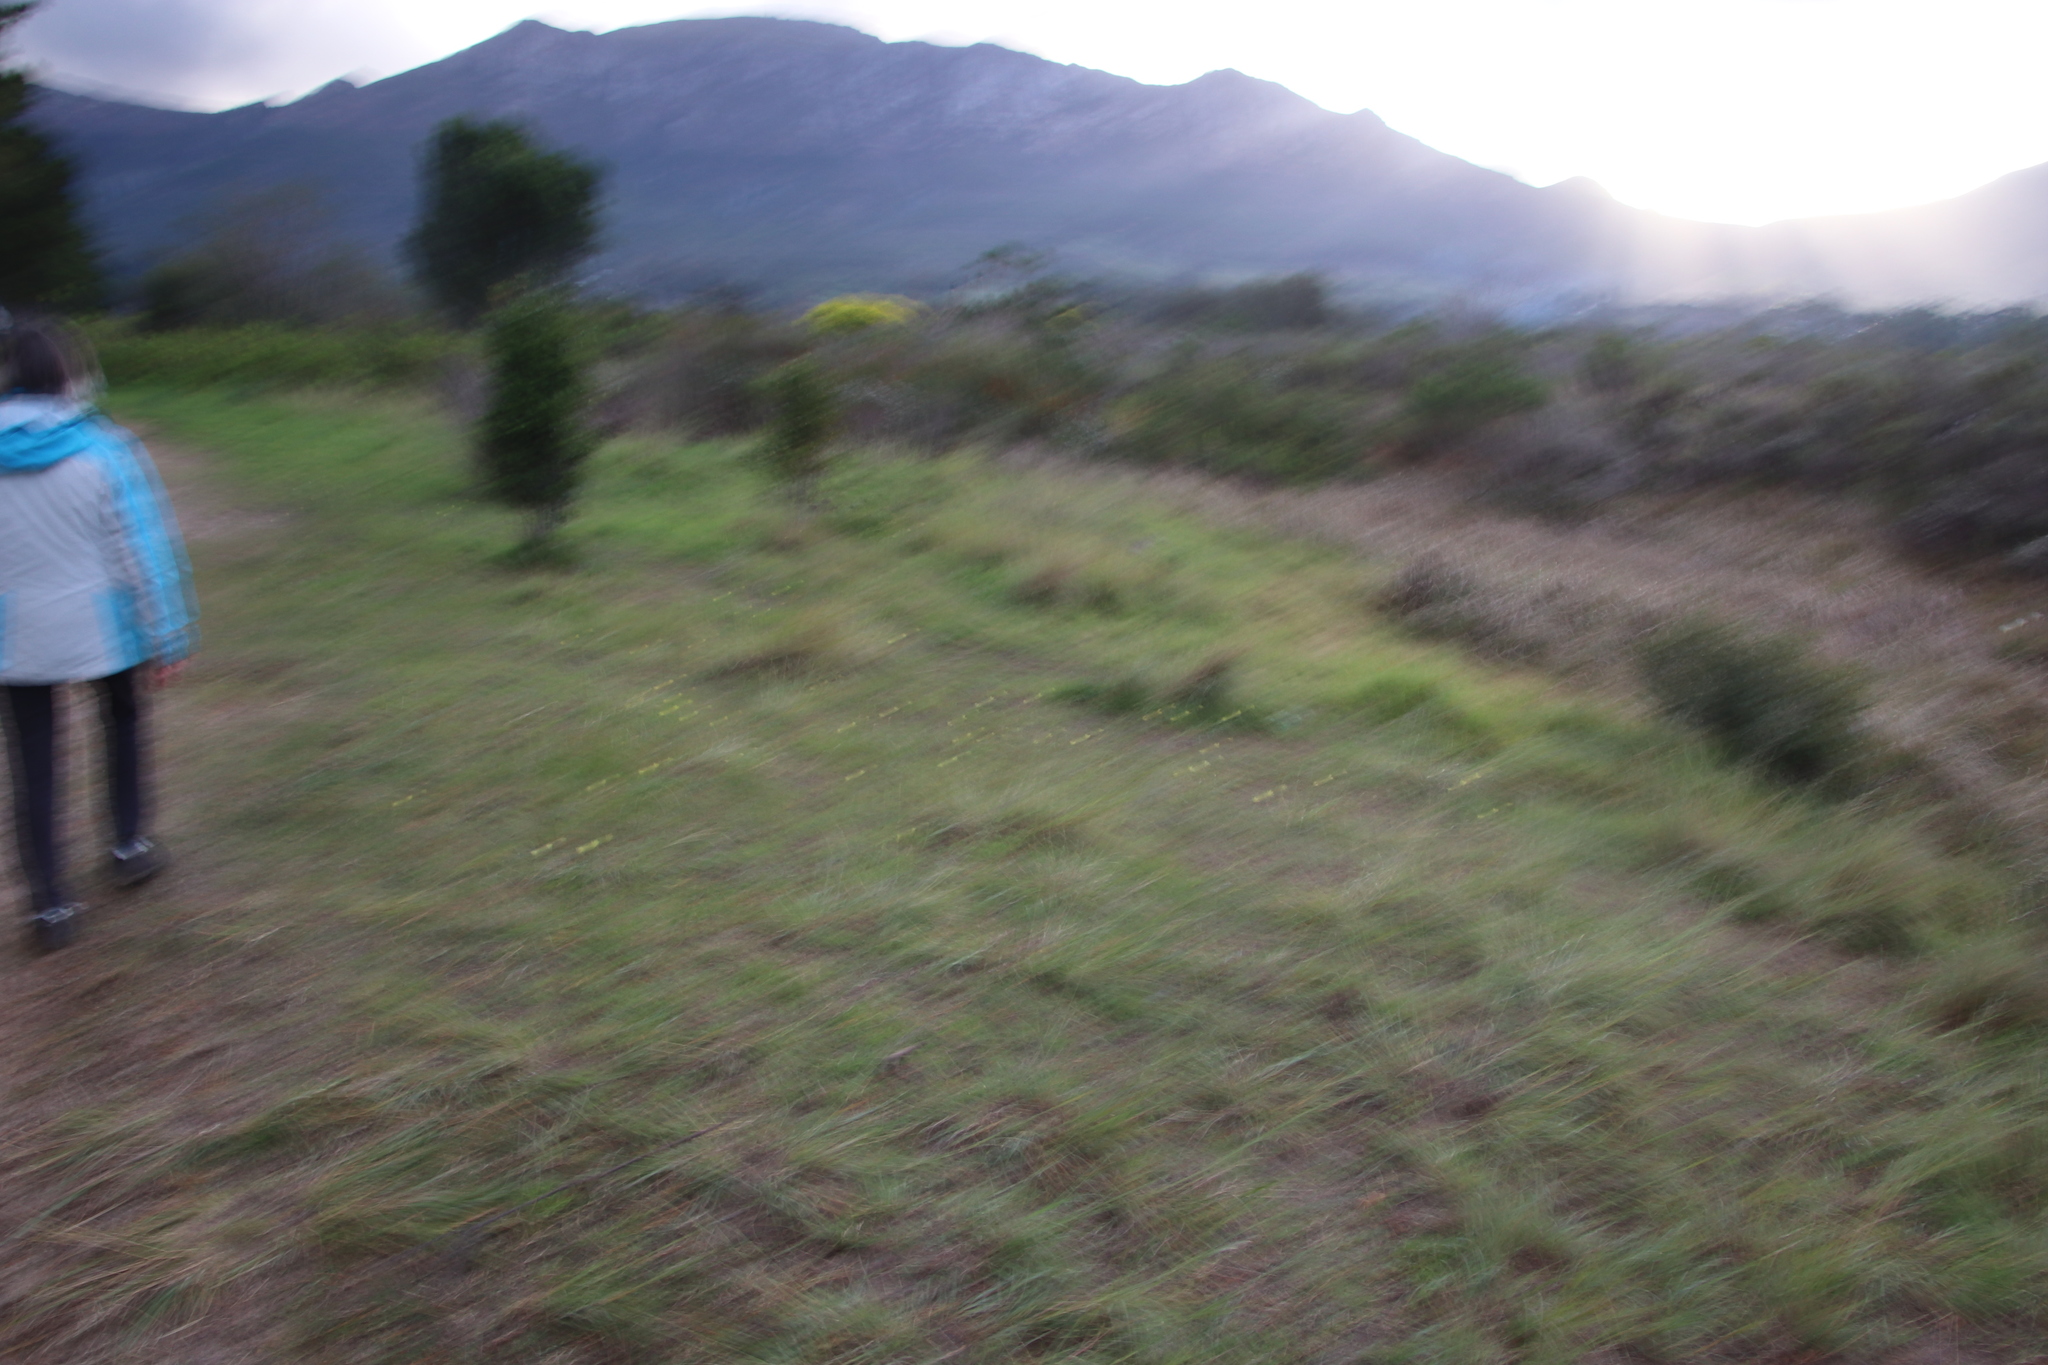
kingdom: Plantae
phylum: Tracheophyta
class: Liliopsida
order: Asparagales
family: Iridaceae
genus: Moraea
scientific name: Moraea collina
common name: Cape-tulip
